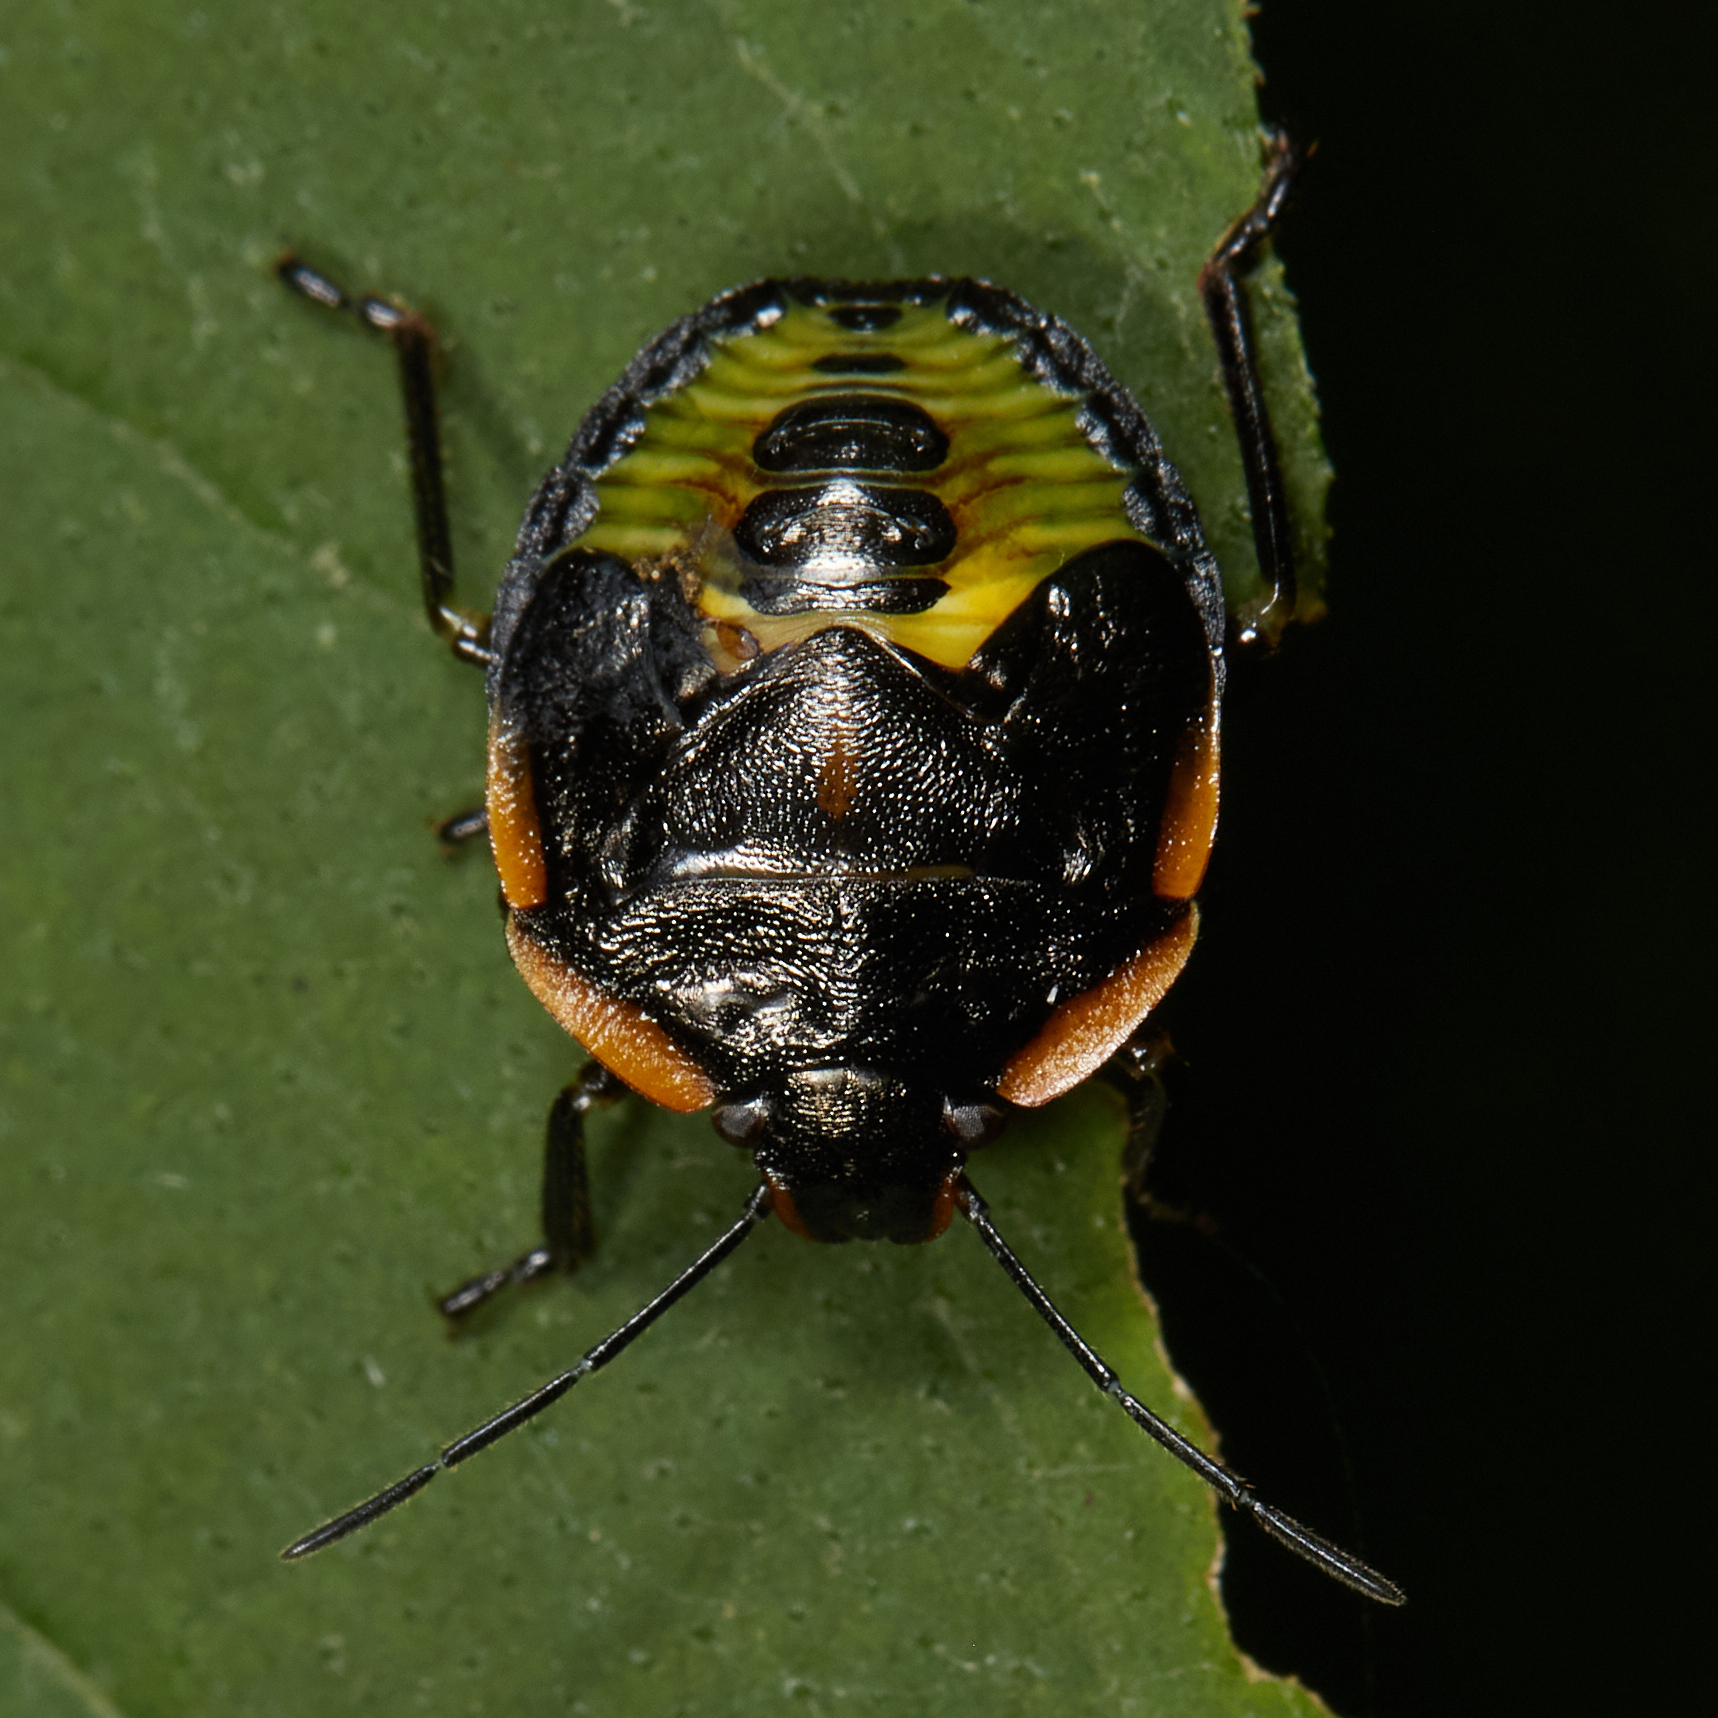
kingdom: Animalia
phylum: Arthropoda
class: Insecta
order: Hemiptera
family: Pentatomidae
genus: Chinavia
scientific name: Chinavia hilaris
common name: Green stink bug
